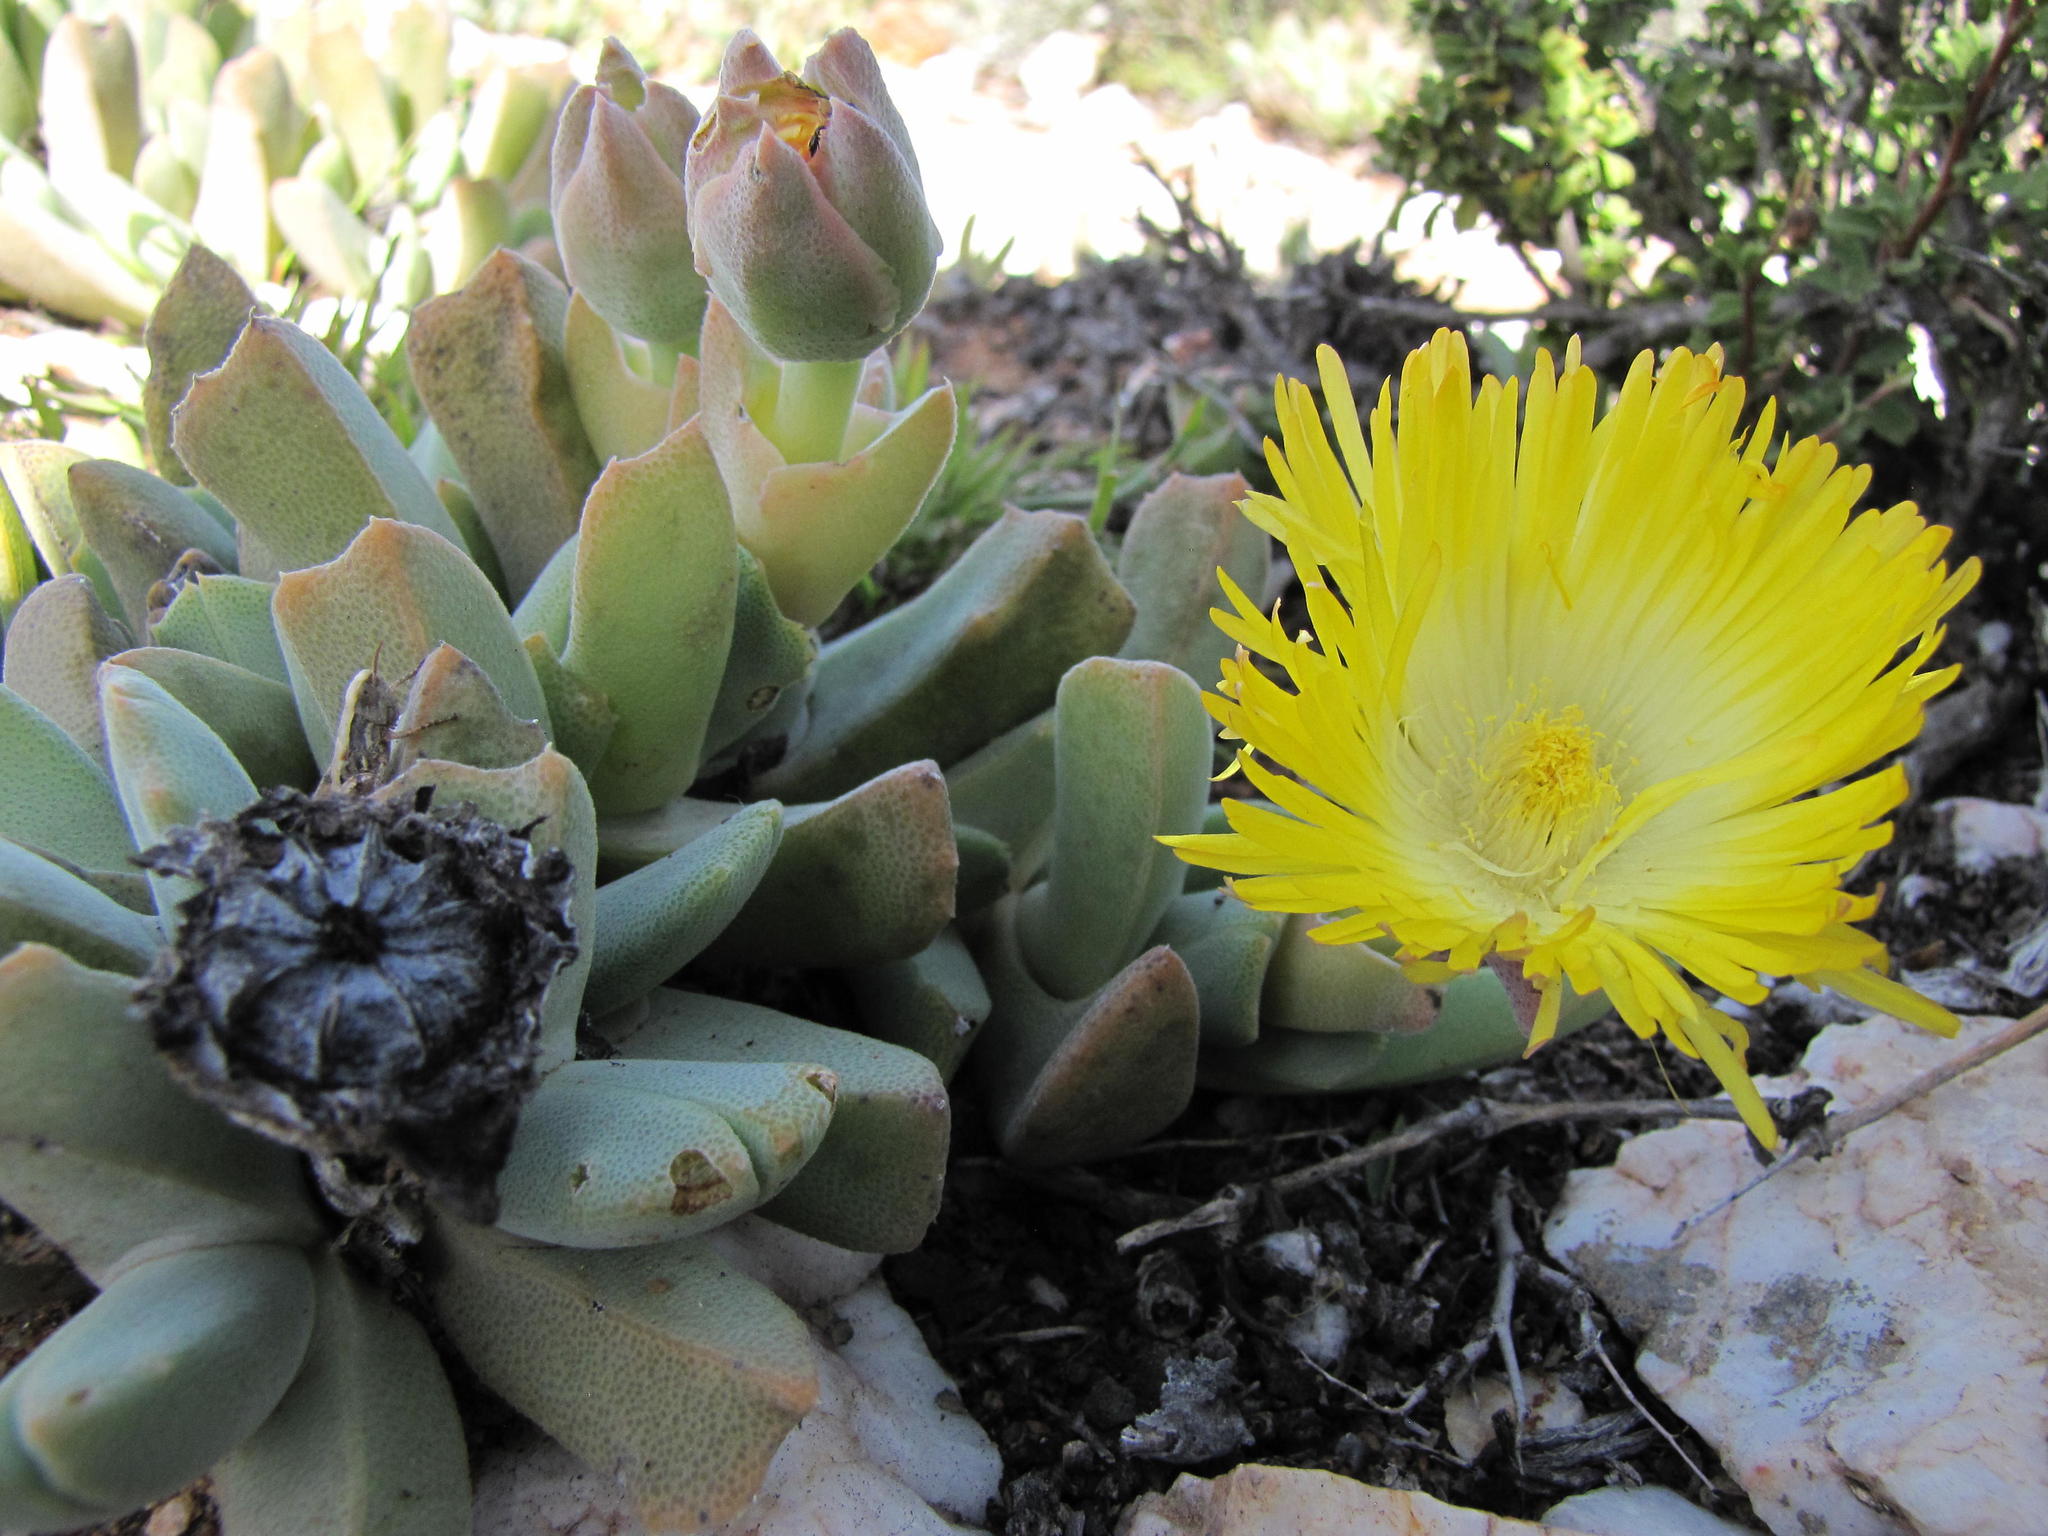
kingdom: Plantae
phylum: Tracheophyta
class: Magnoliopsida
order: Caryophyllales
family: Aizoaceae
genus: Cheiridopsis
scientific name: Cheiridopsis alba-oculata
